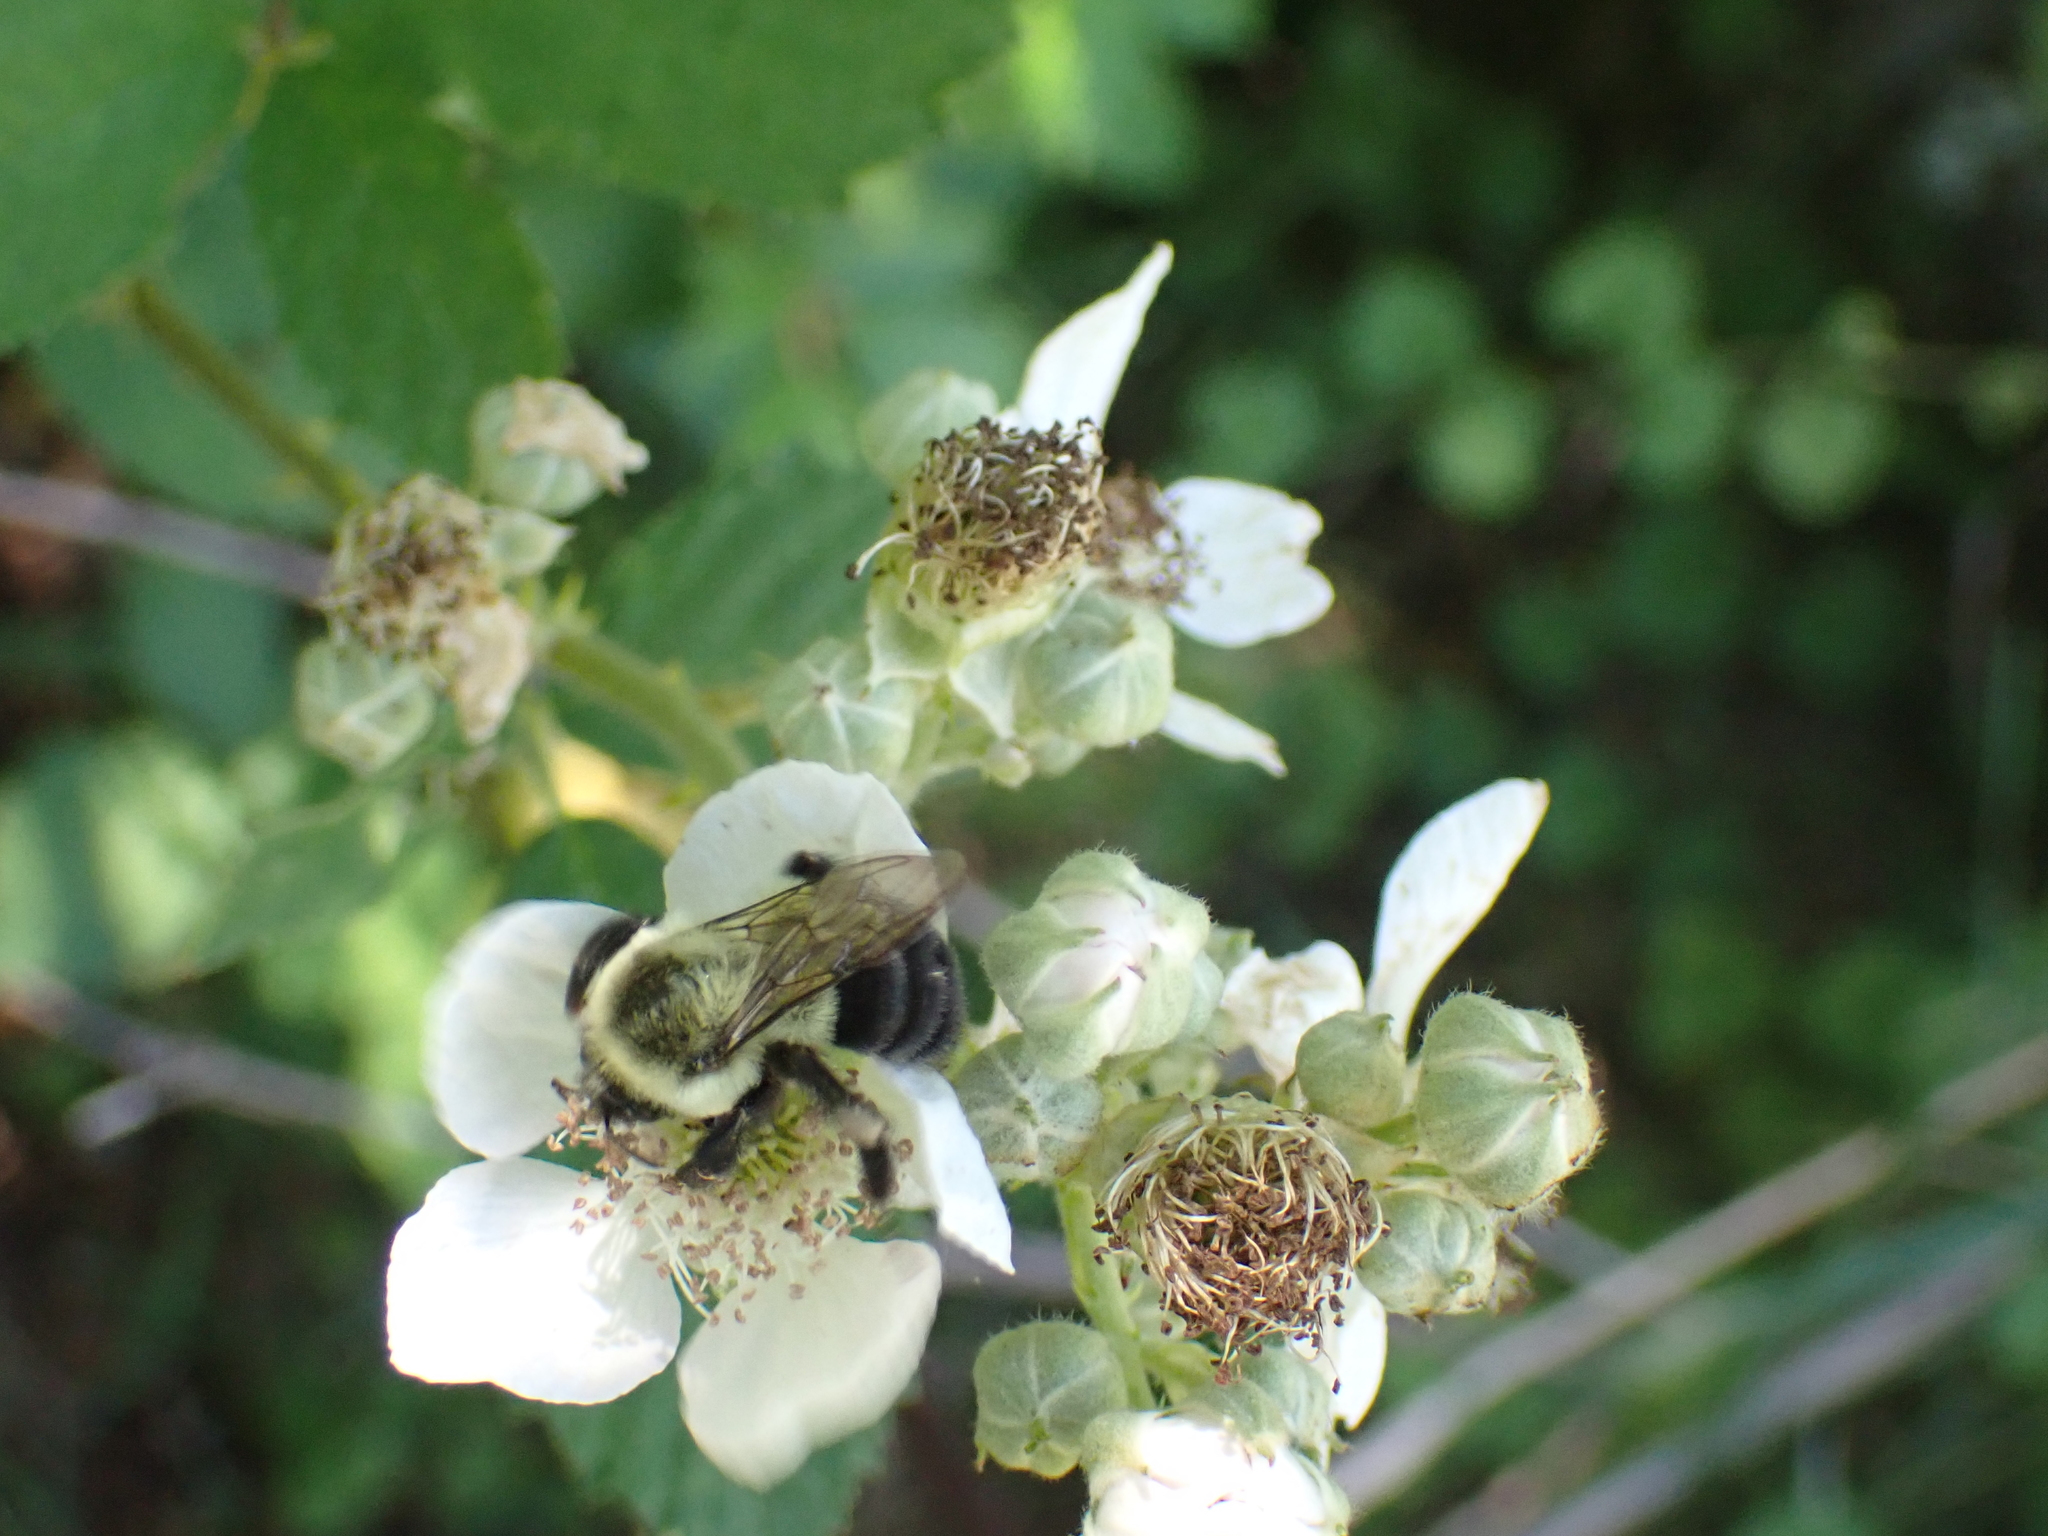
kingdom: Animalia
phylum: Arthropoda
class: Insecta
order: Hymenoptera
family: Apidae
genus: Bombus
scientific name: Bombus impatiens
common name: Common eastern bumble bee
